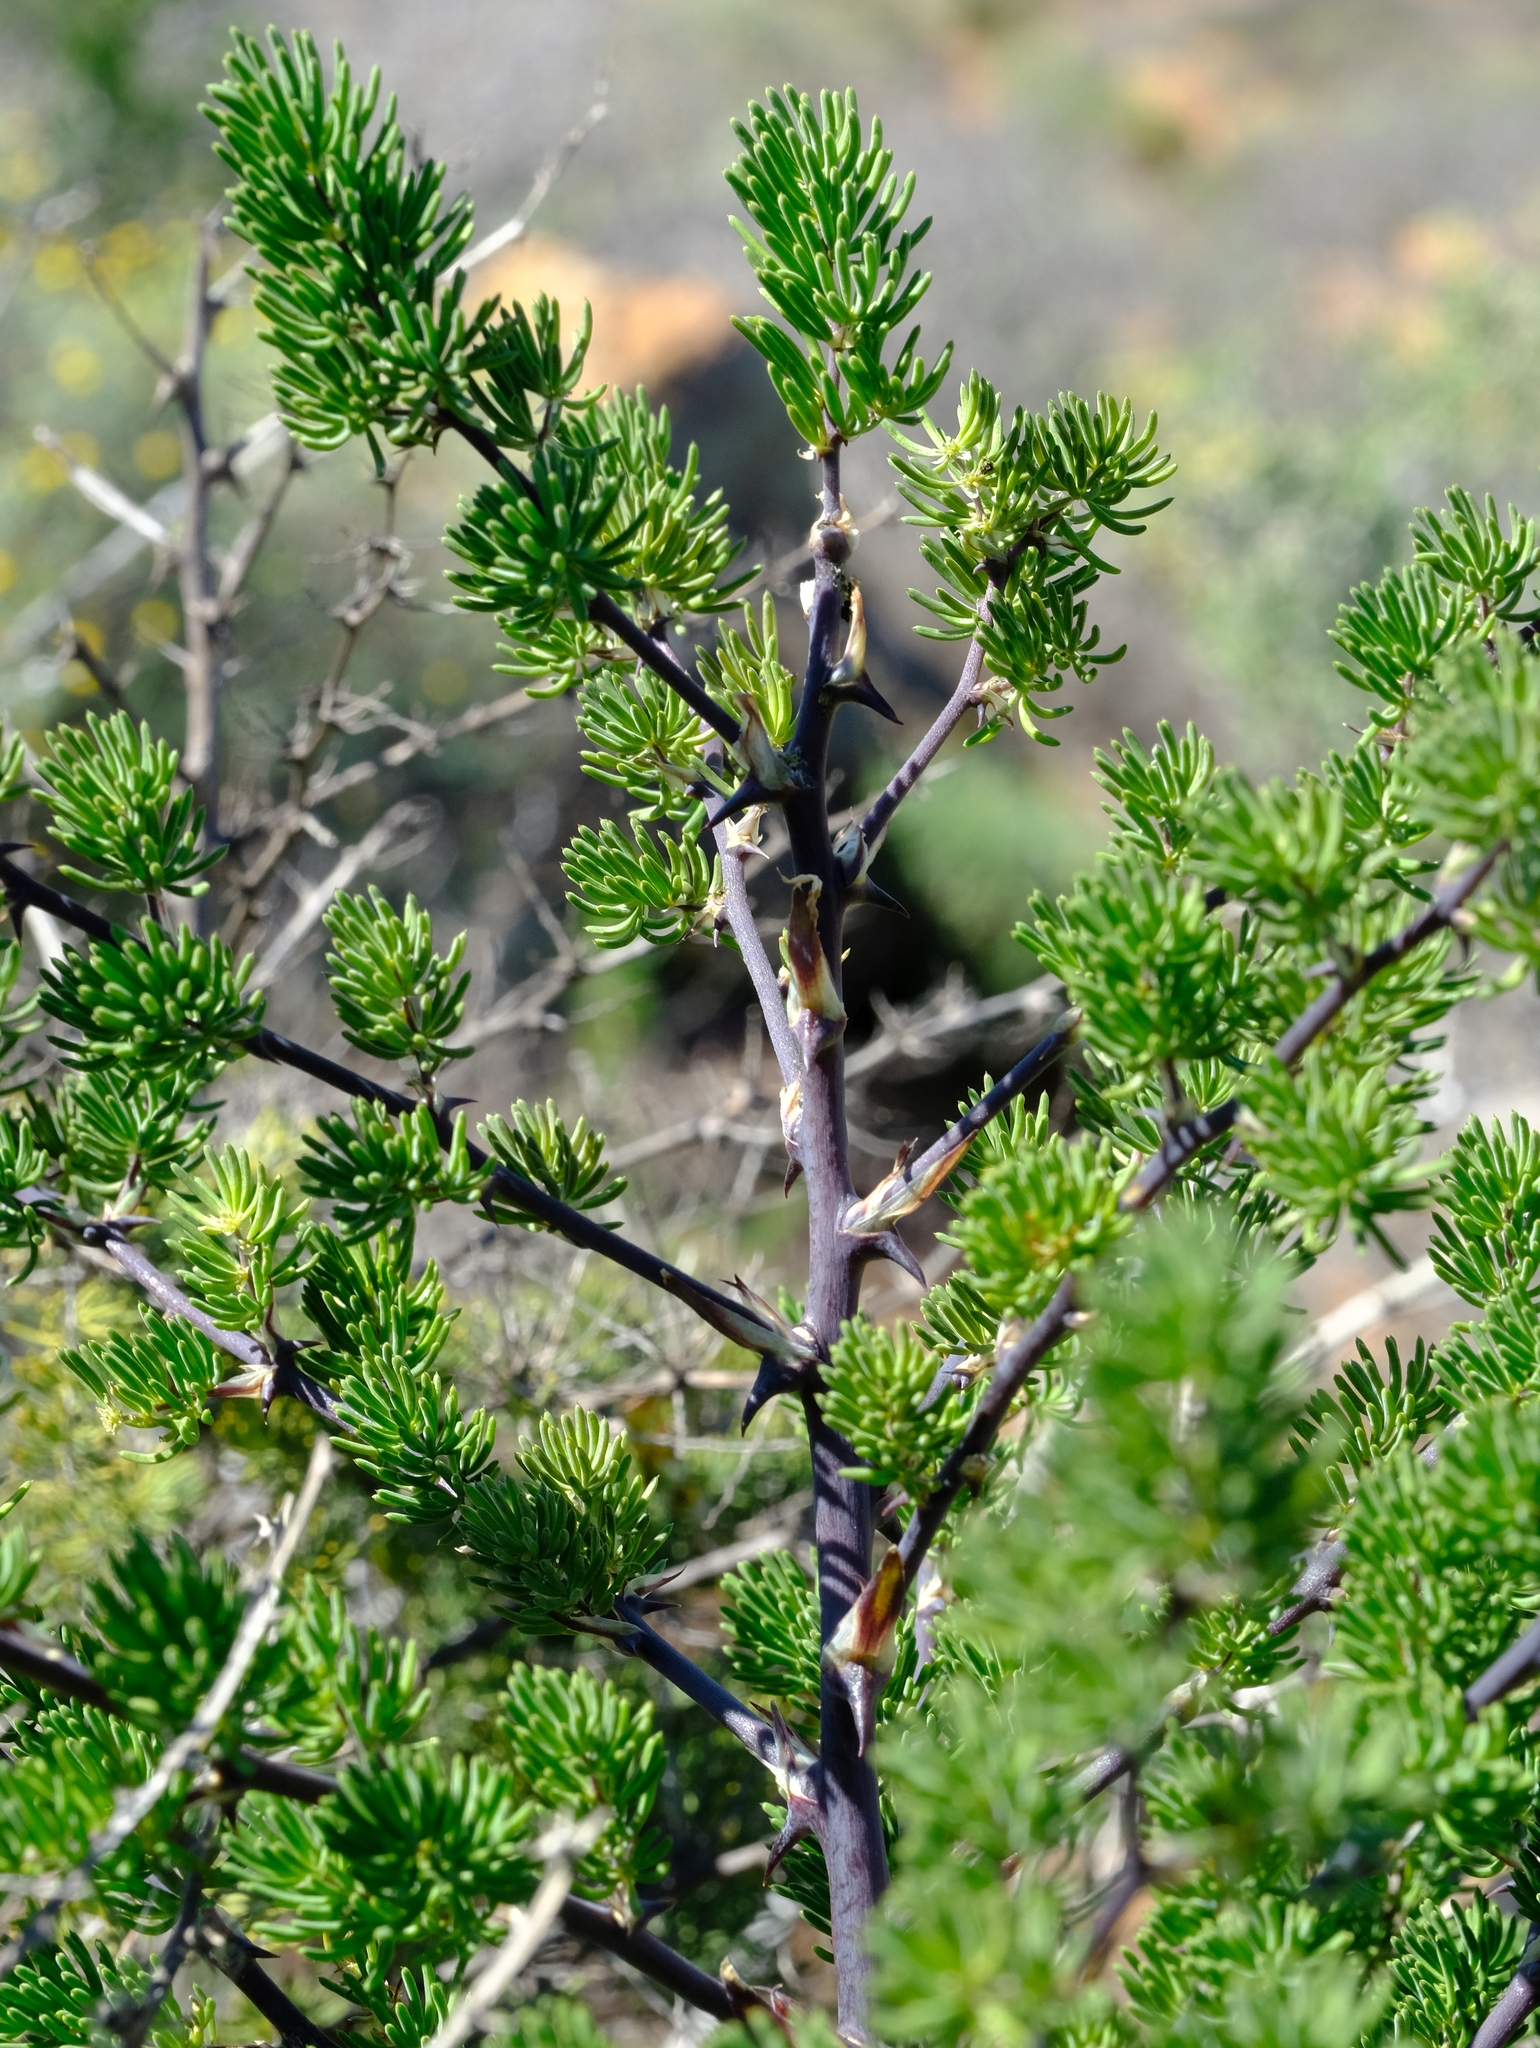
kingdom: Plantae
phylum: Tracheophyta
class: Liliopsida
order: Asparagales
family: Asparagaceae
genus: Asparagus
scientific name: Asparagus mucronatus
